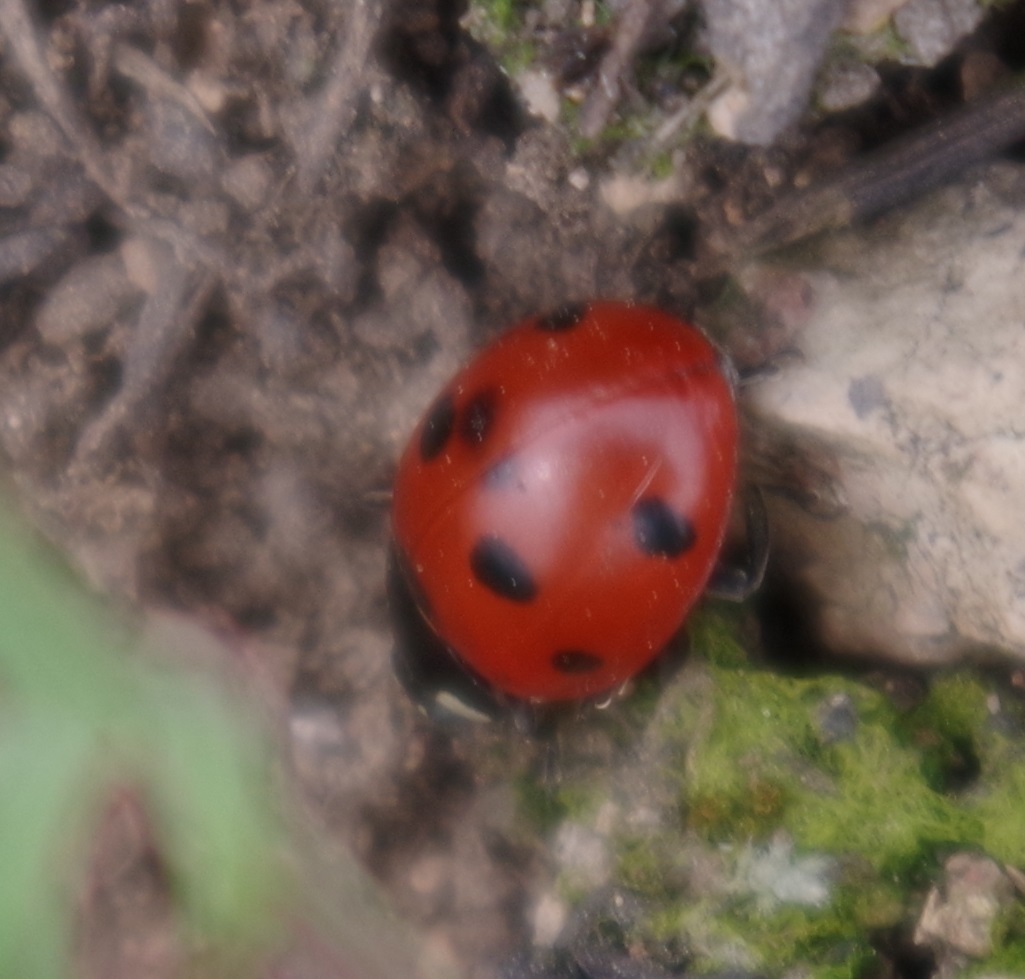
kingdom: Animalia
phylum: Arthropoda
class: Insecta
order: Coleoptera
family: Coccinellidae
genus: Coccinella
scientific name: Coccinella septempunctata
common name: Sevenspotted lady beetle
